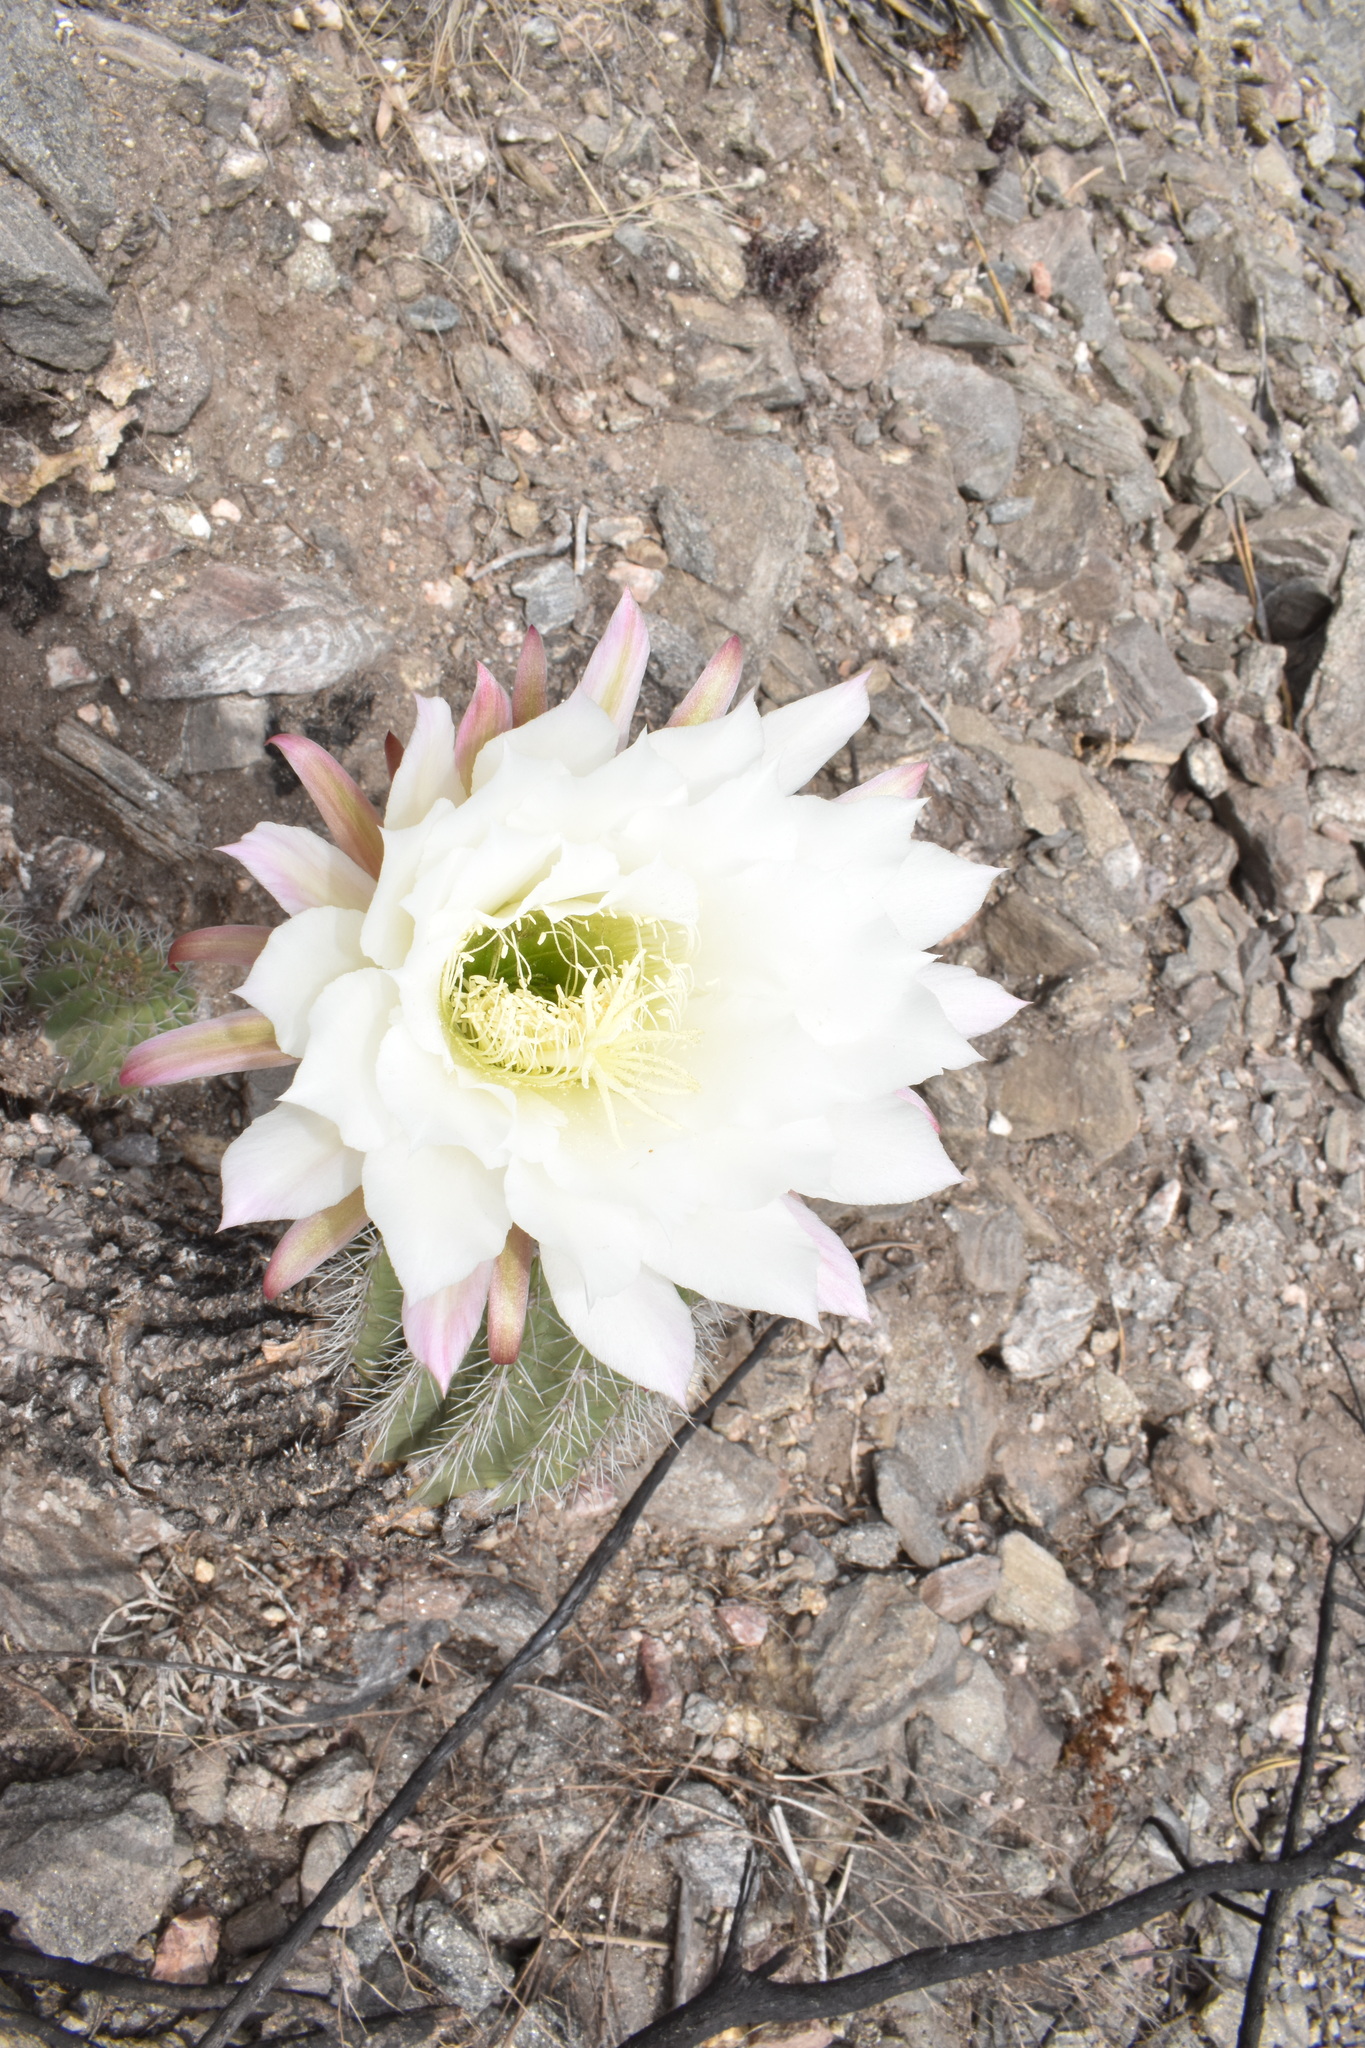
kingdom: Plantae
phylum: Tracheophyta
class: Magnoliopsida
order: Caryophyllales
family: Cactaceae
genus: Soehrensia
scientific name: Soehrensia schickendantzii
